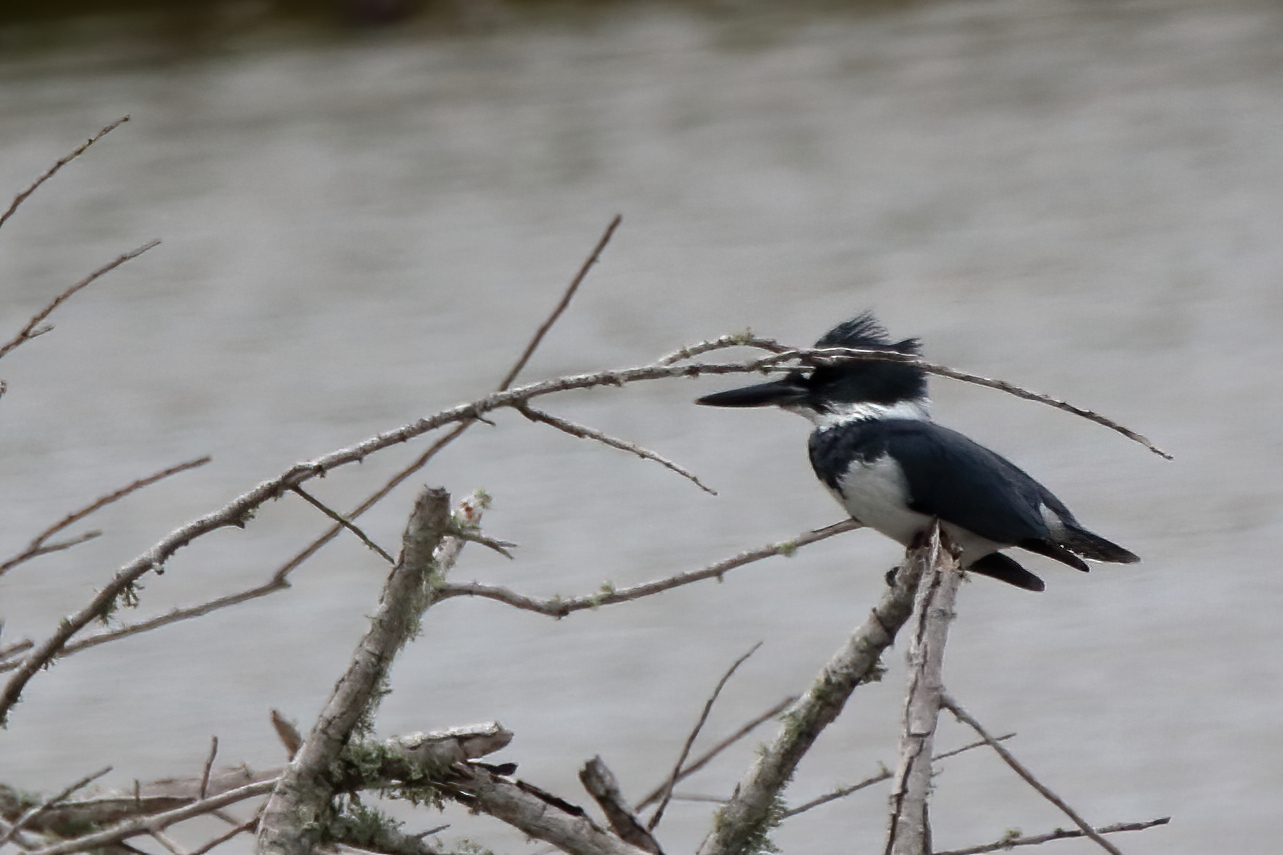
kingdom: Animalia
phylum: Chordata
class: Aves
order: Coraciiformes
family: Alcedinidae
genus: Megaceryle
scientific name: Megaceryle alcyon
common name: Belted kingfisher
